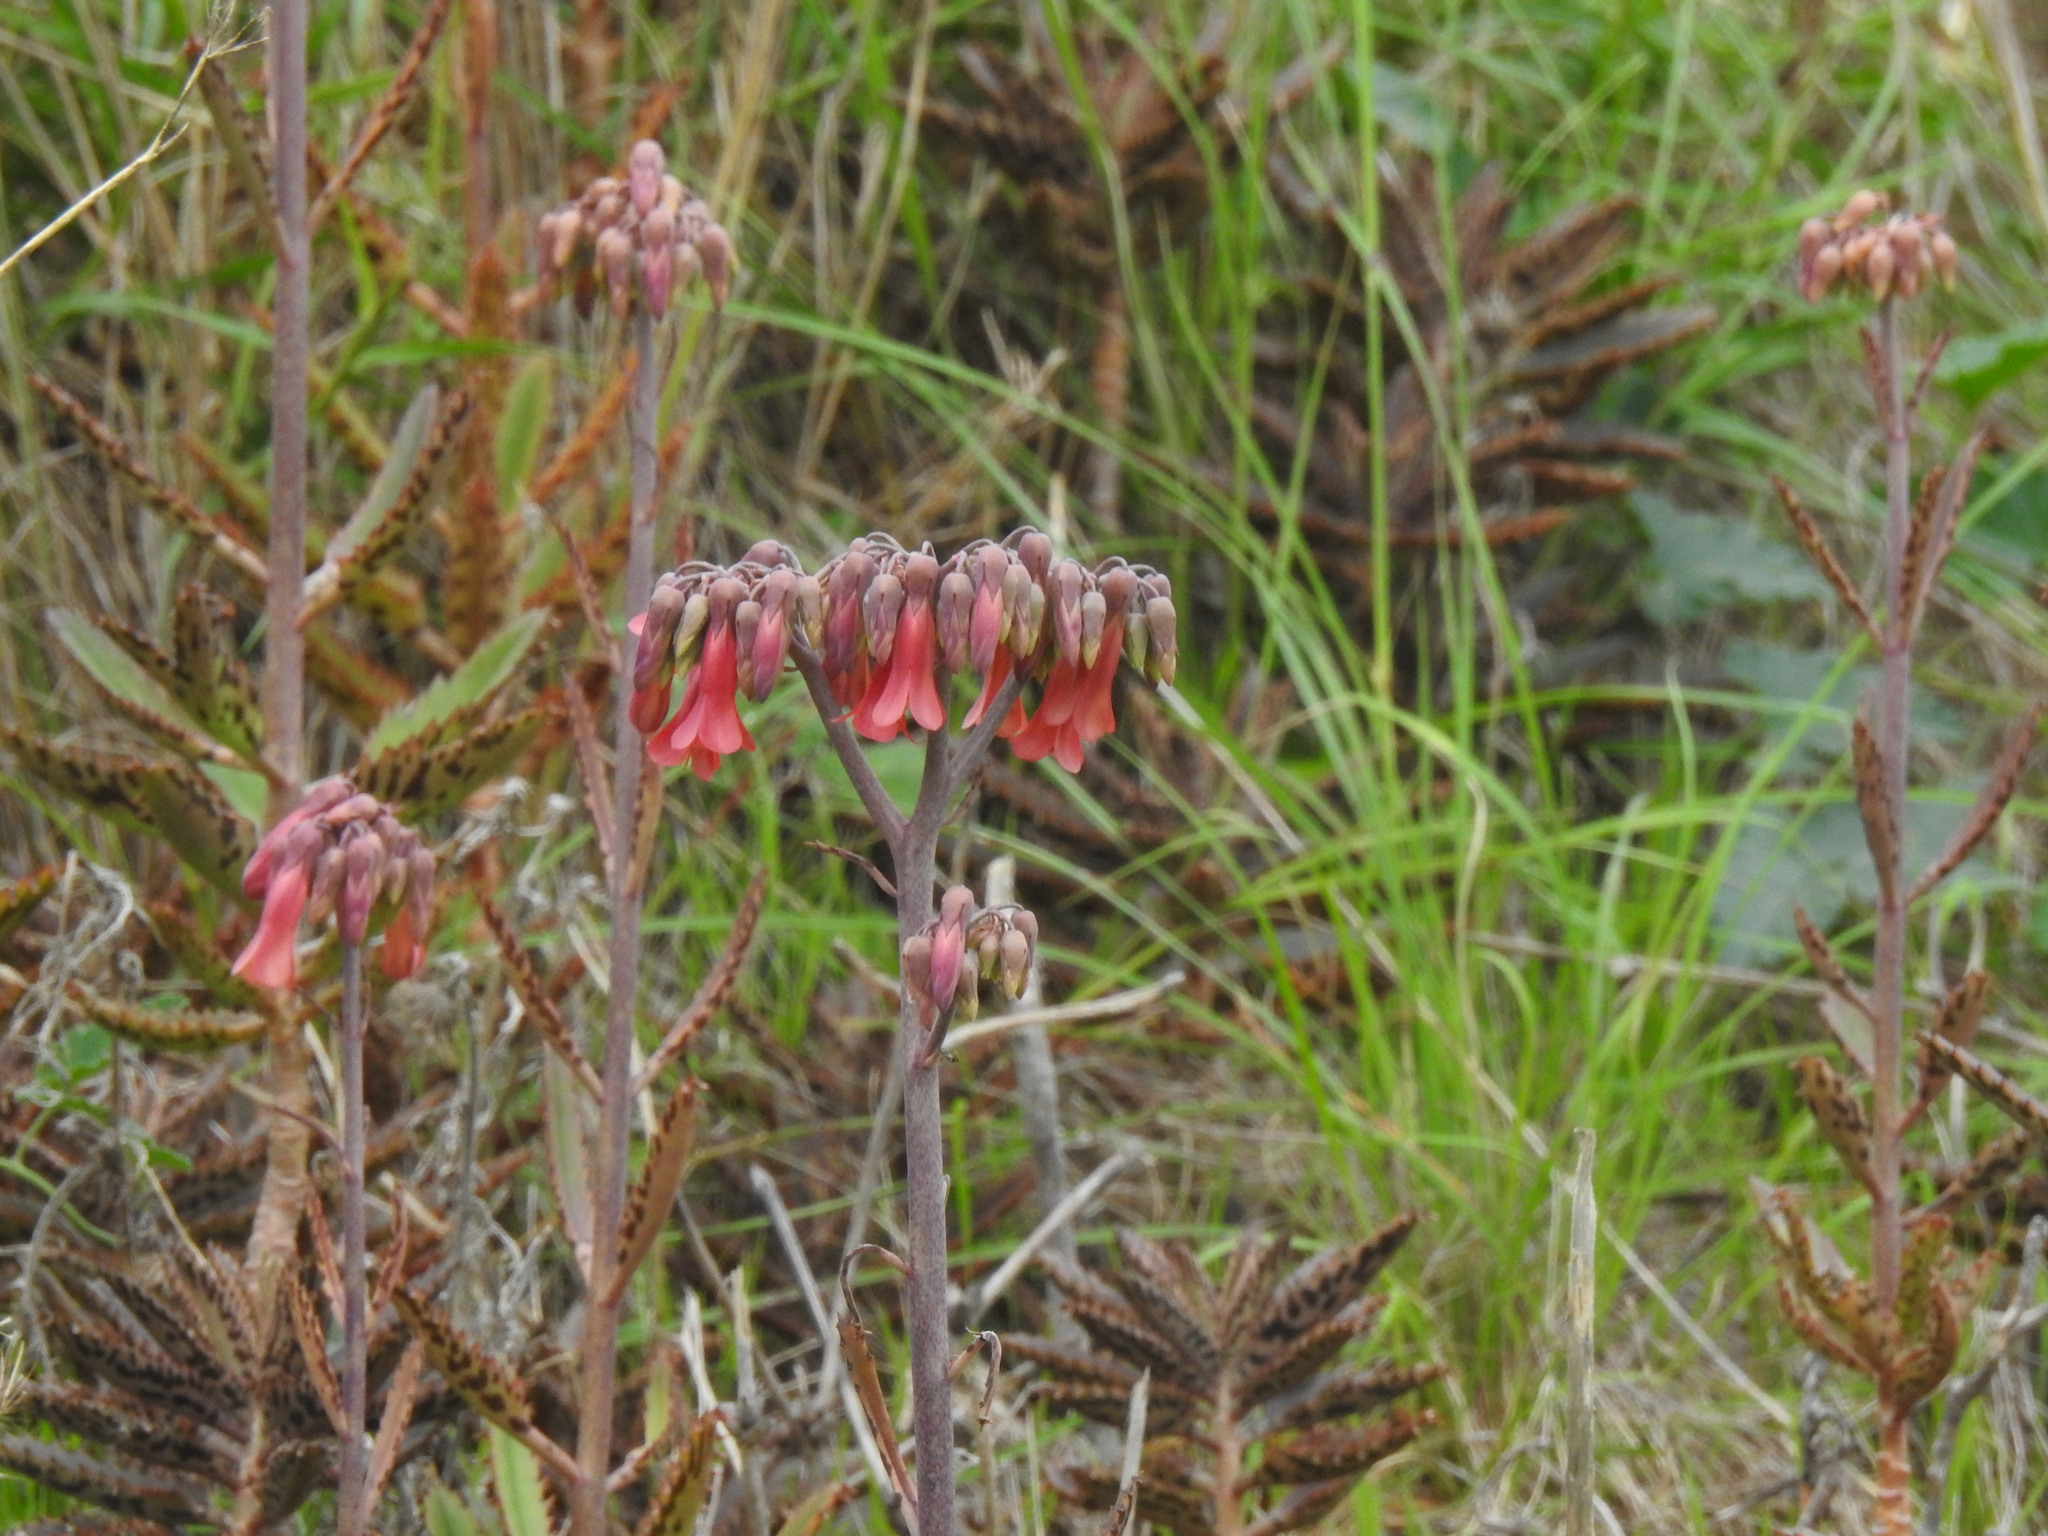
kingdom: Plantae
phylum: Tracheophyta
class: Magnoliopsida
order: Saxifragales
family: Crassulaceae
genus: Kalanchoe
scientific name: Kalanchoe houghtonii
